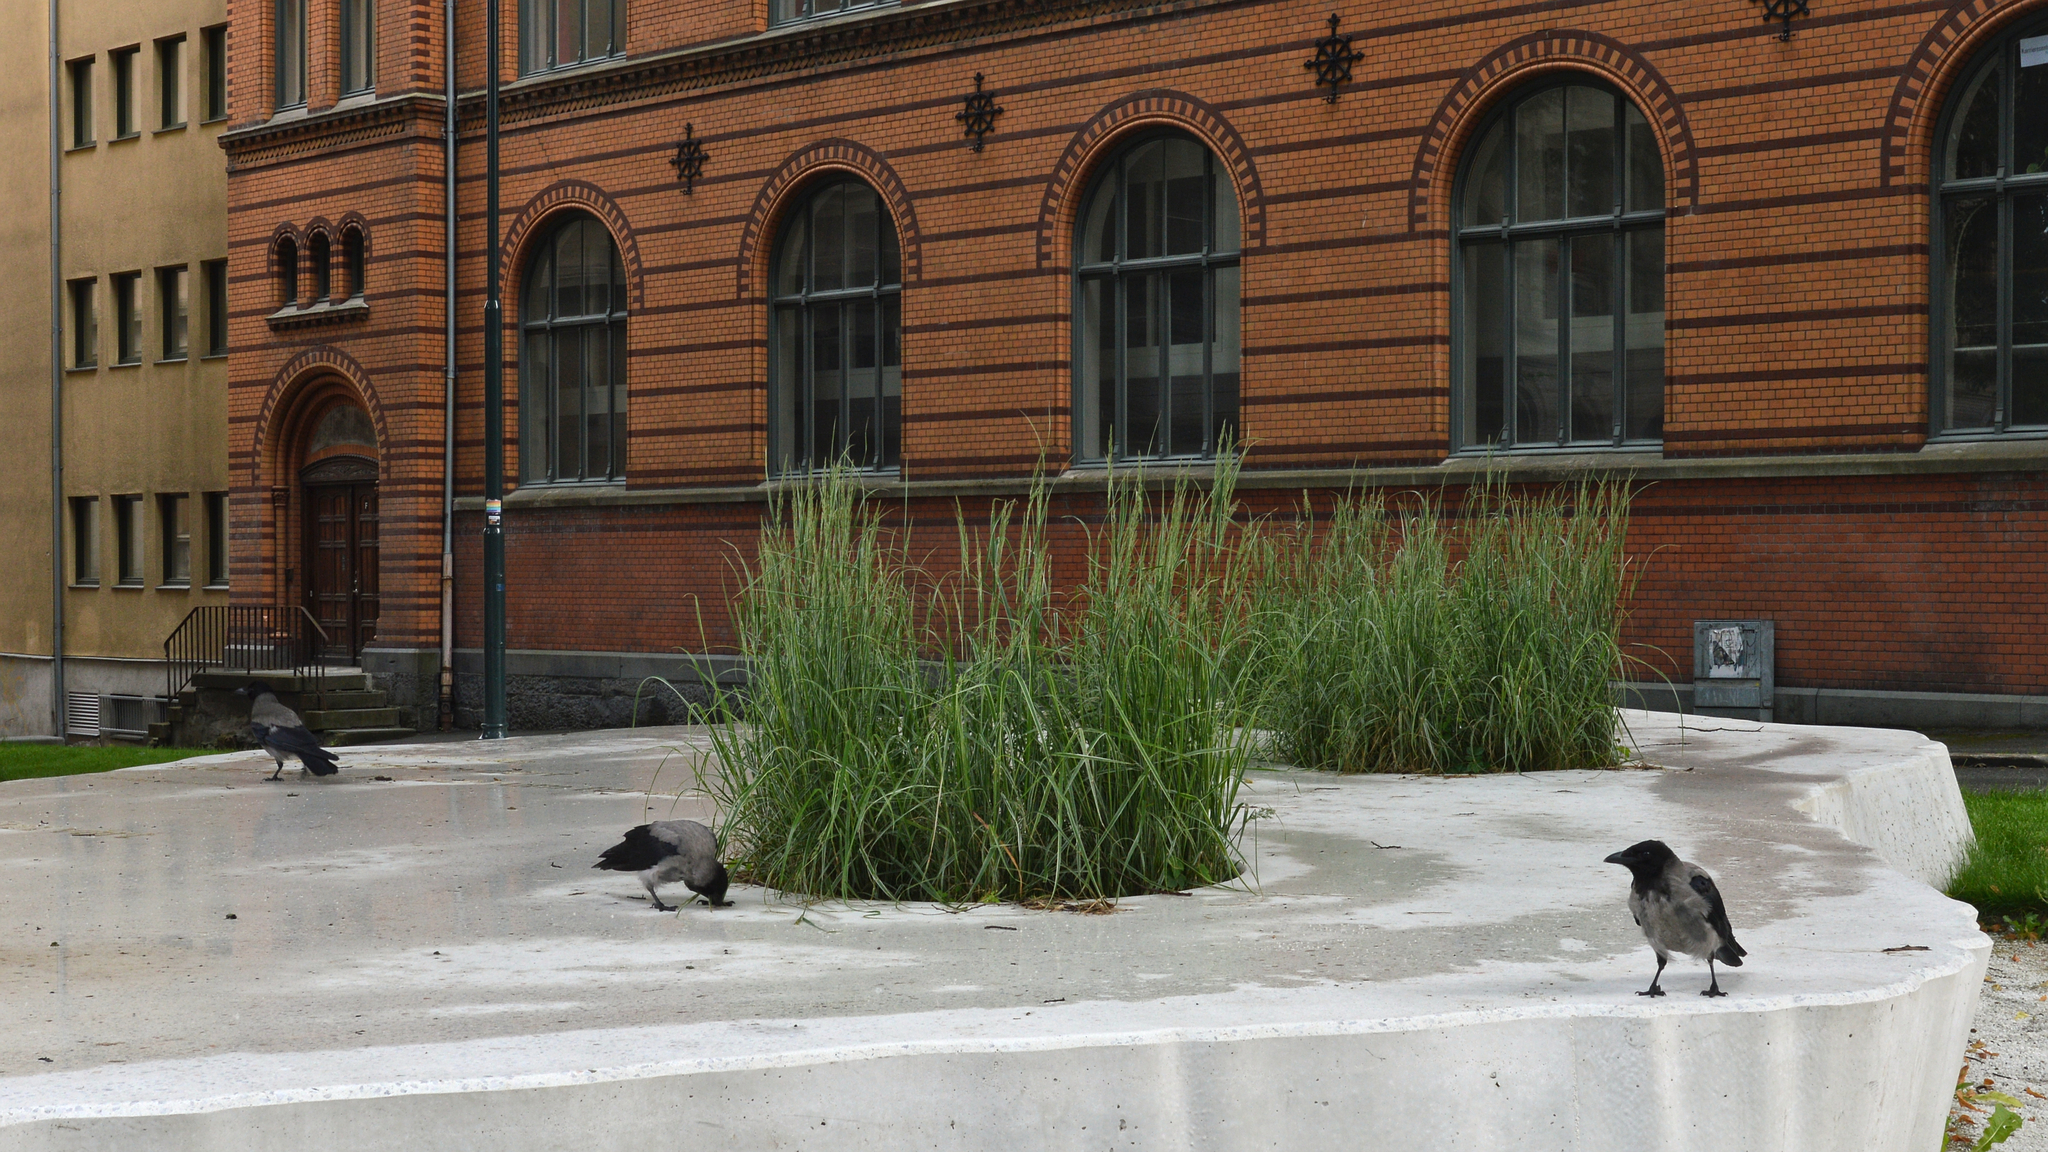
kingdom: Animalia
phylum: Chordata
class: Aves
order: Passeriformes
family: Corvidae
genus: Corvus
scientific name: Corvus cornix
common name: Hooded crow
